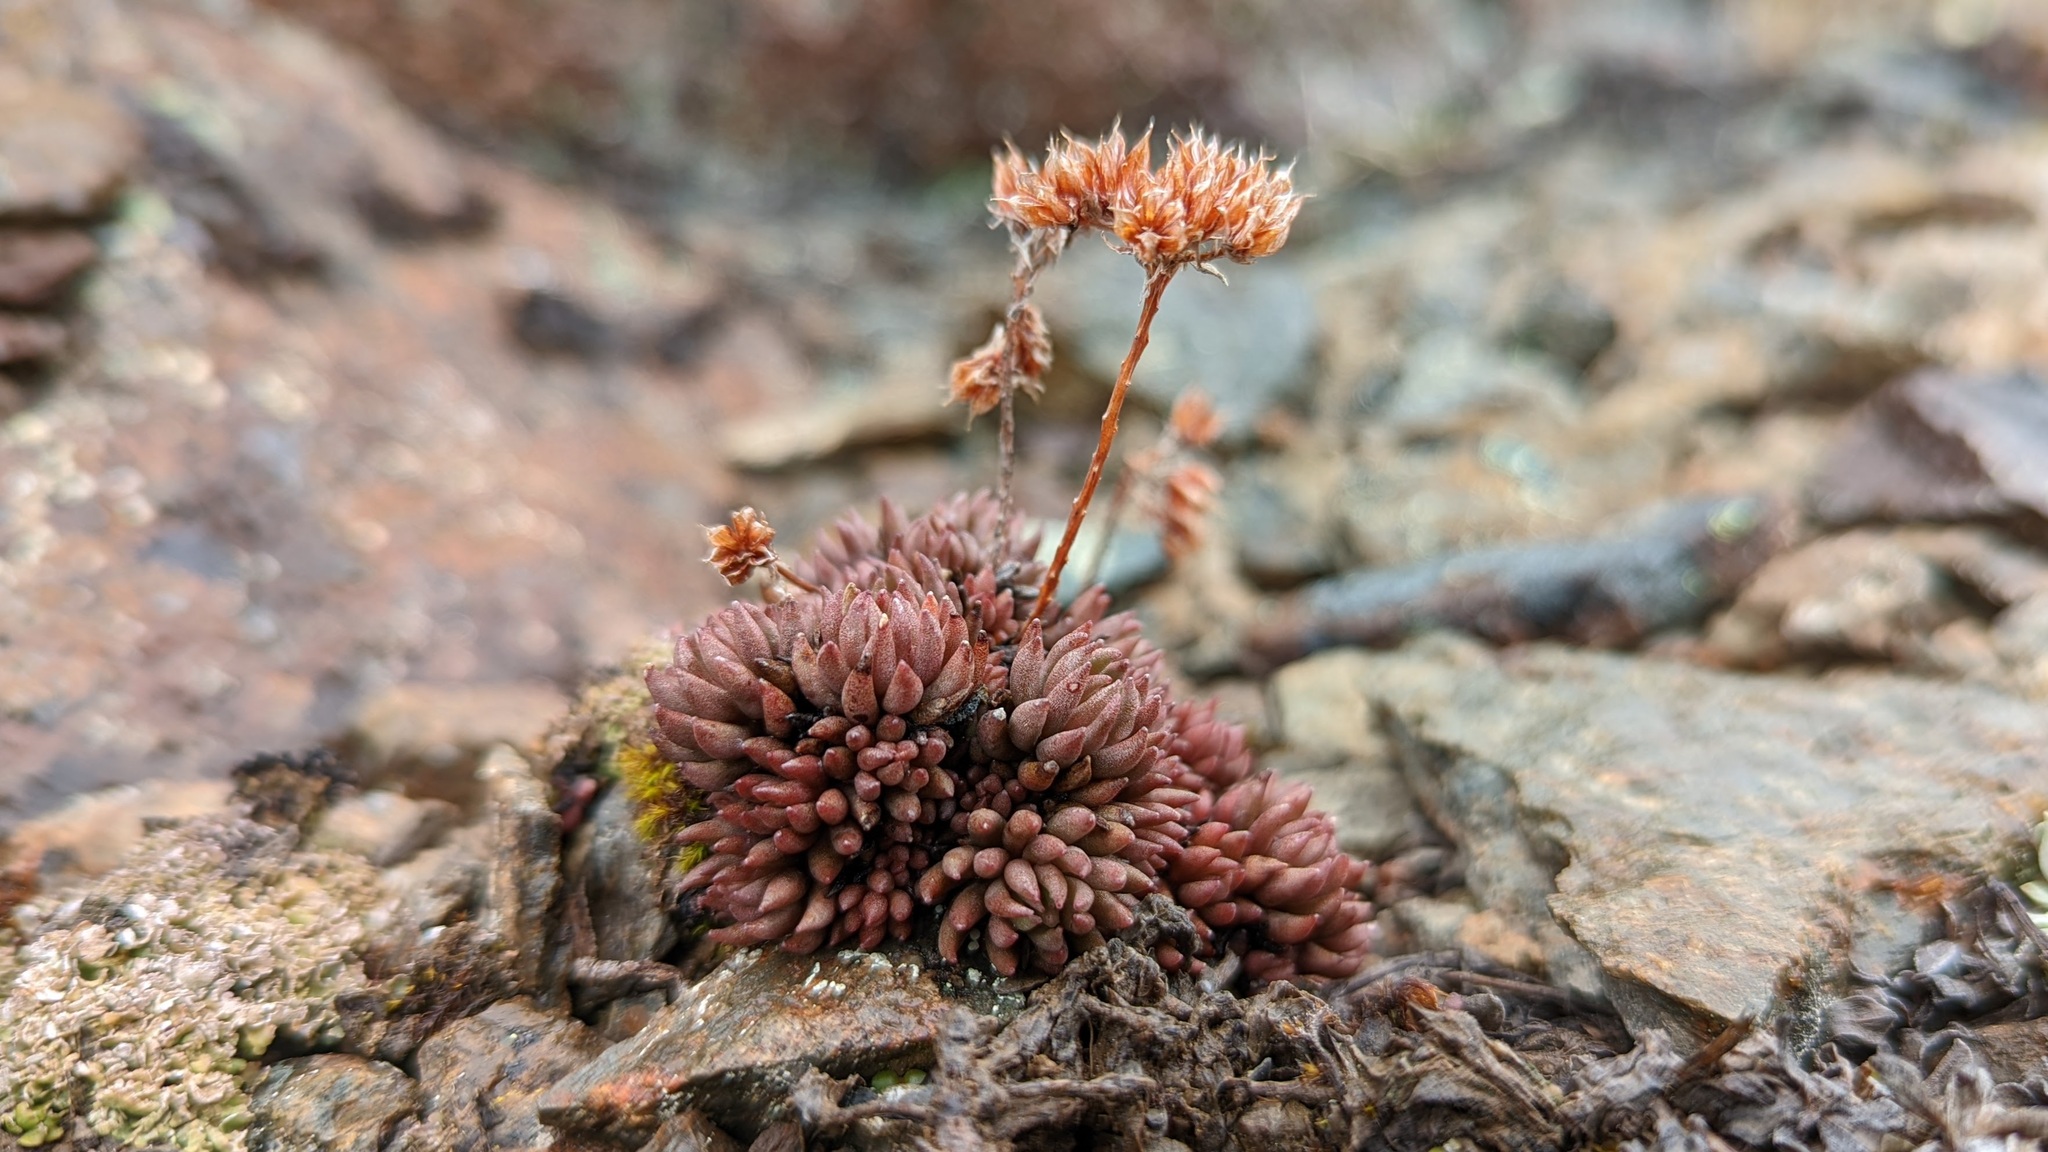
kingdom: Plantae
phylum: Tracheophyta
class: Magnoliopsida
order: Saxifragales
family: Crassulaceae
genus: Sedum
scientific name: Sedum lanceolatum
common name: Common stonecrop
